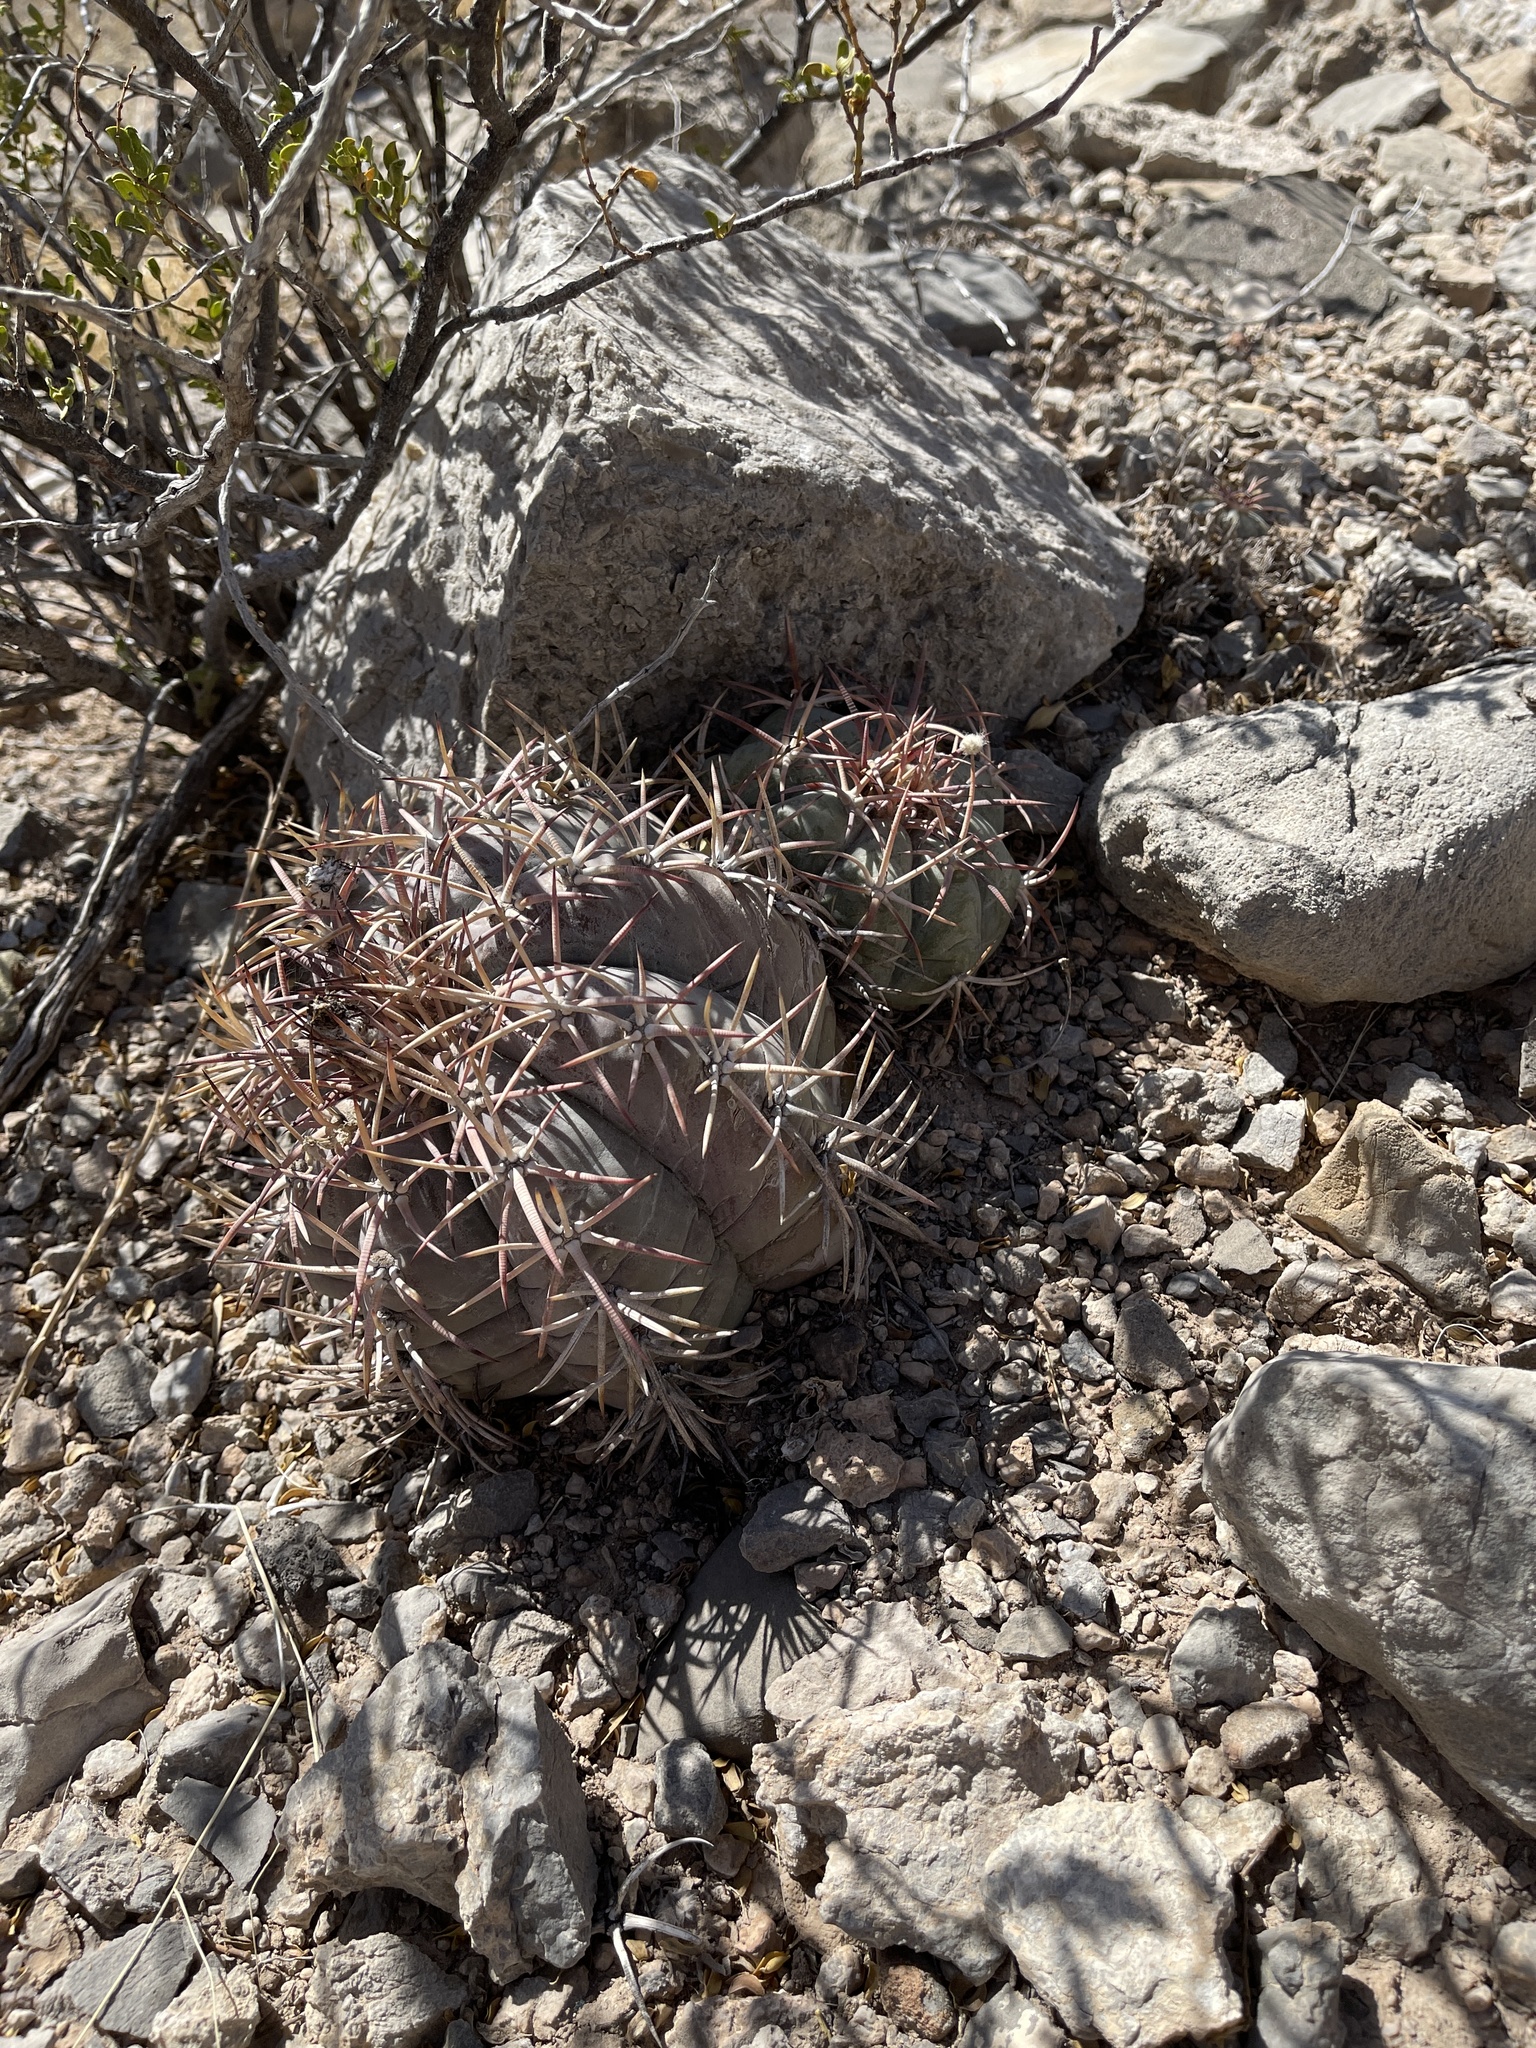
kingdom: Plantae
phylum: Tracheophyta
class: Magnoliopsida
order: Caryophyllales
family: Cactaceae
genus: Echinocactus
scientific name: Echinocactus horizonthalonius
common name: Devilshead
